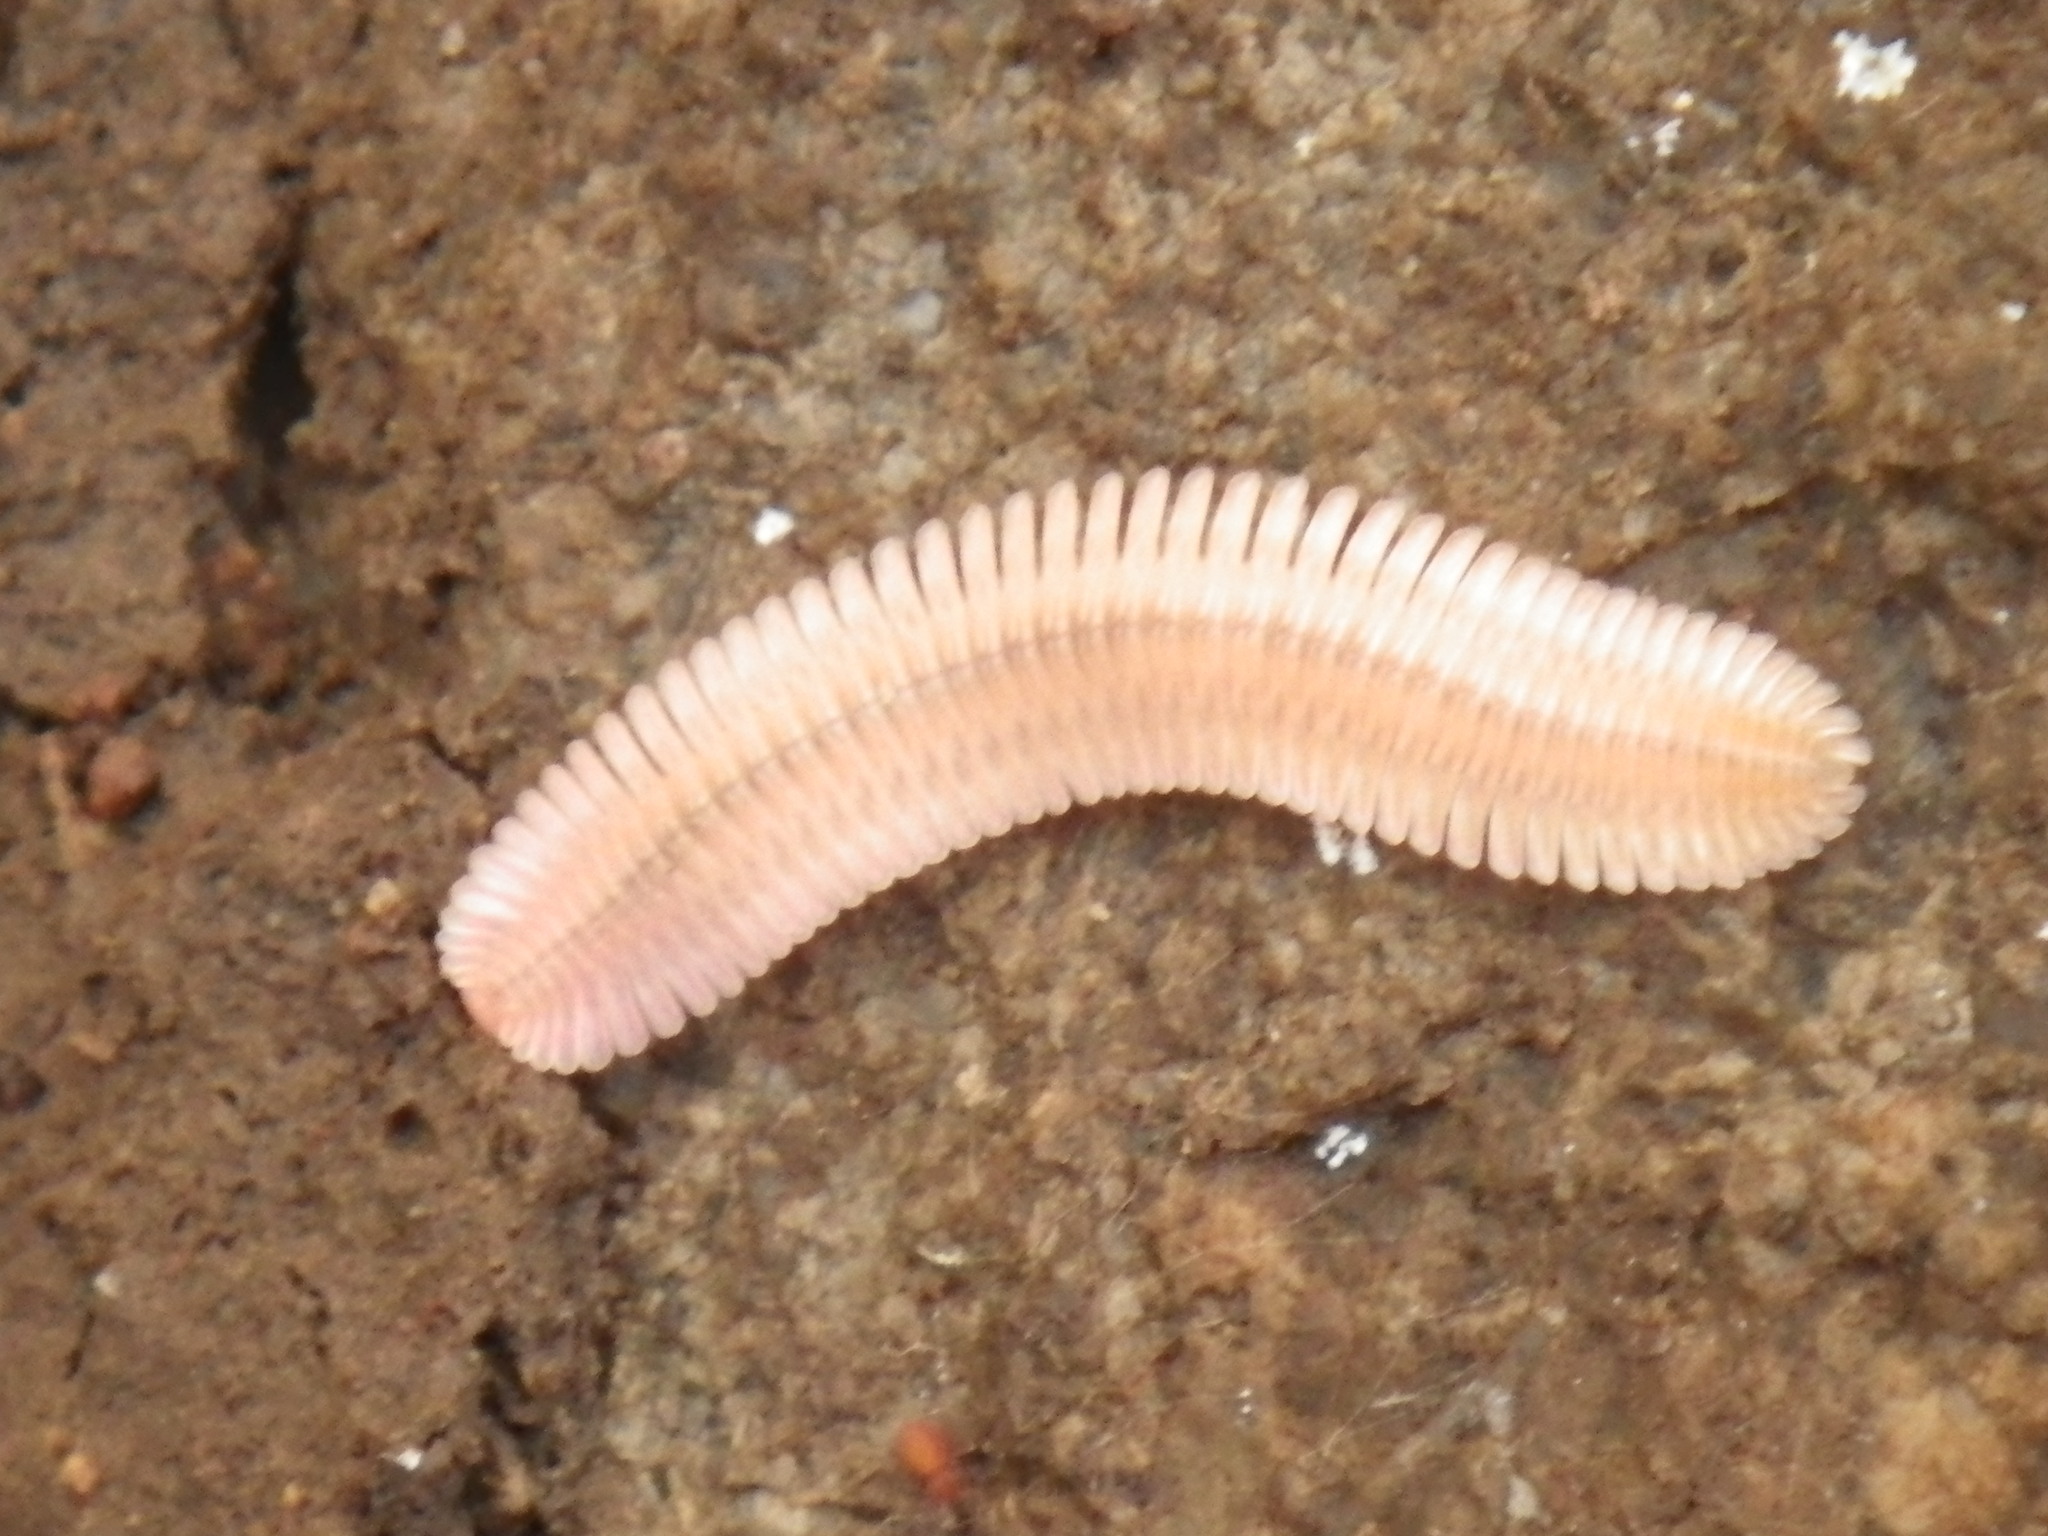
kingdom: Animalia
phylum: Arthropoda
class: Diplopoda
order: Platydesmida
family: Andrognathidae
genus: Brachycybe
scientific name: Brachycybe lecontii
